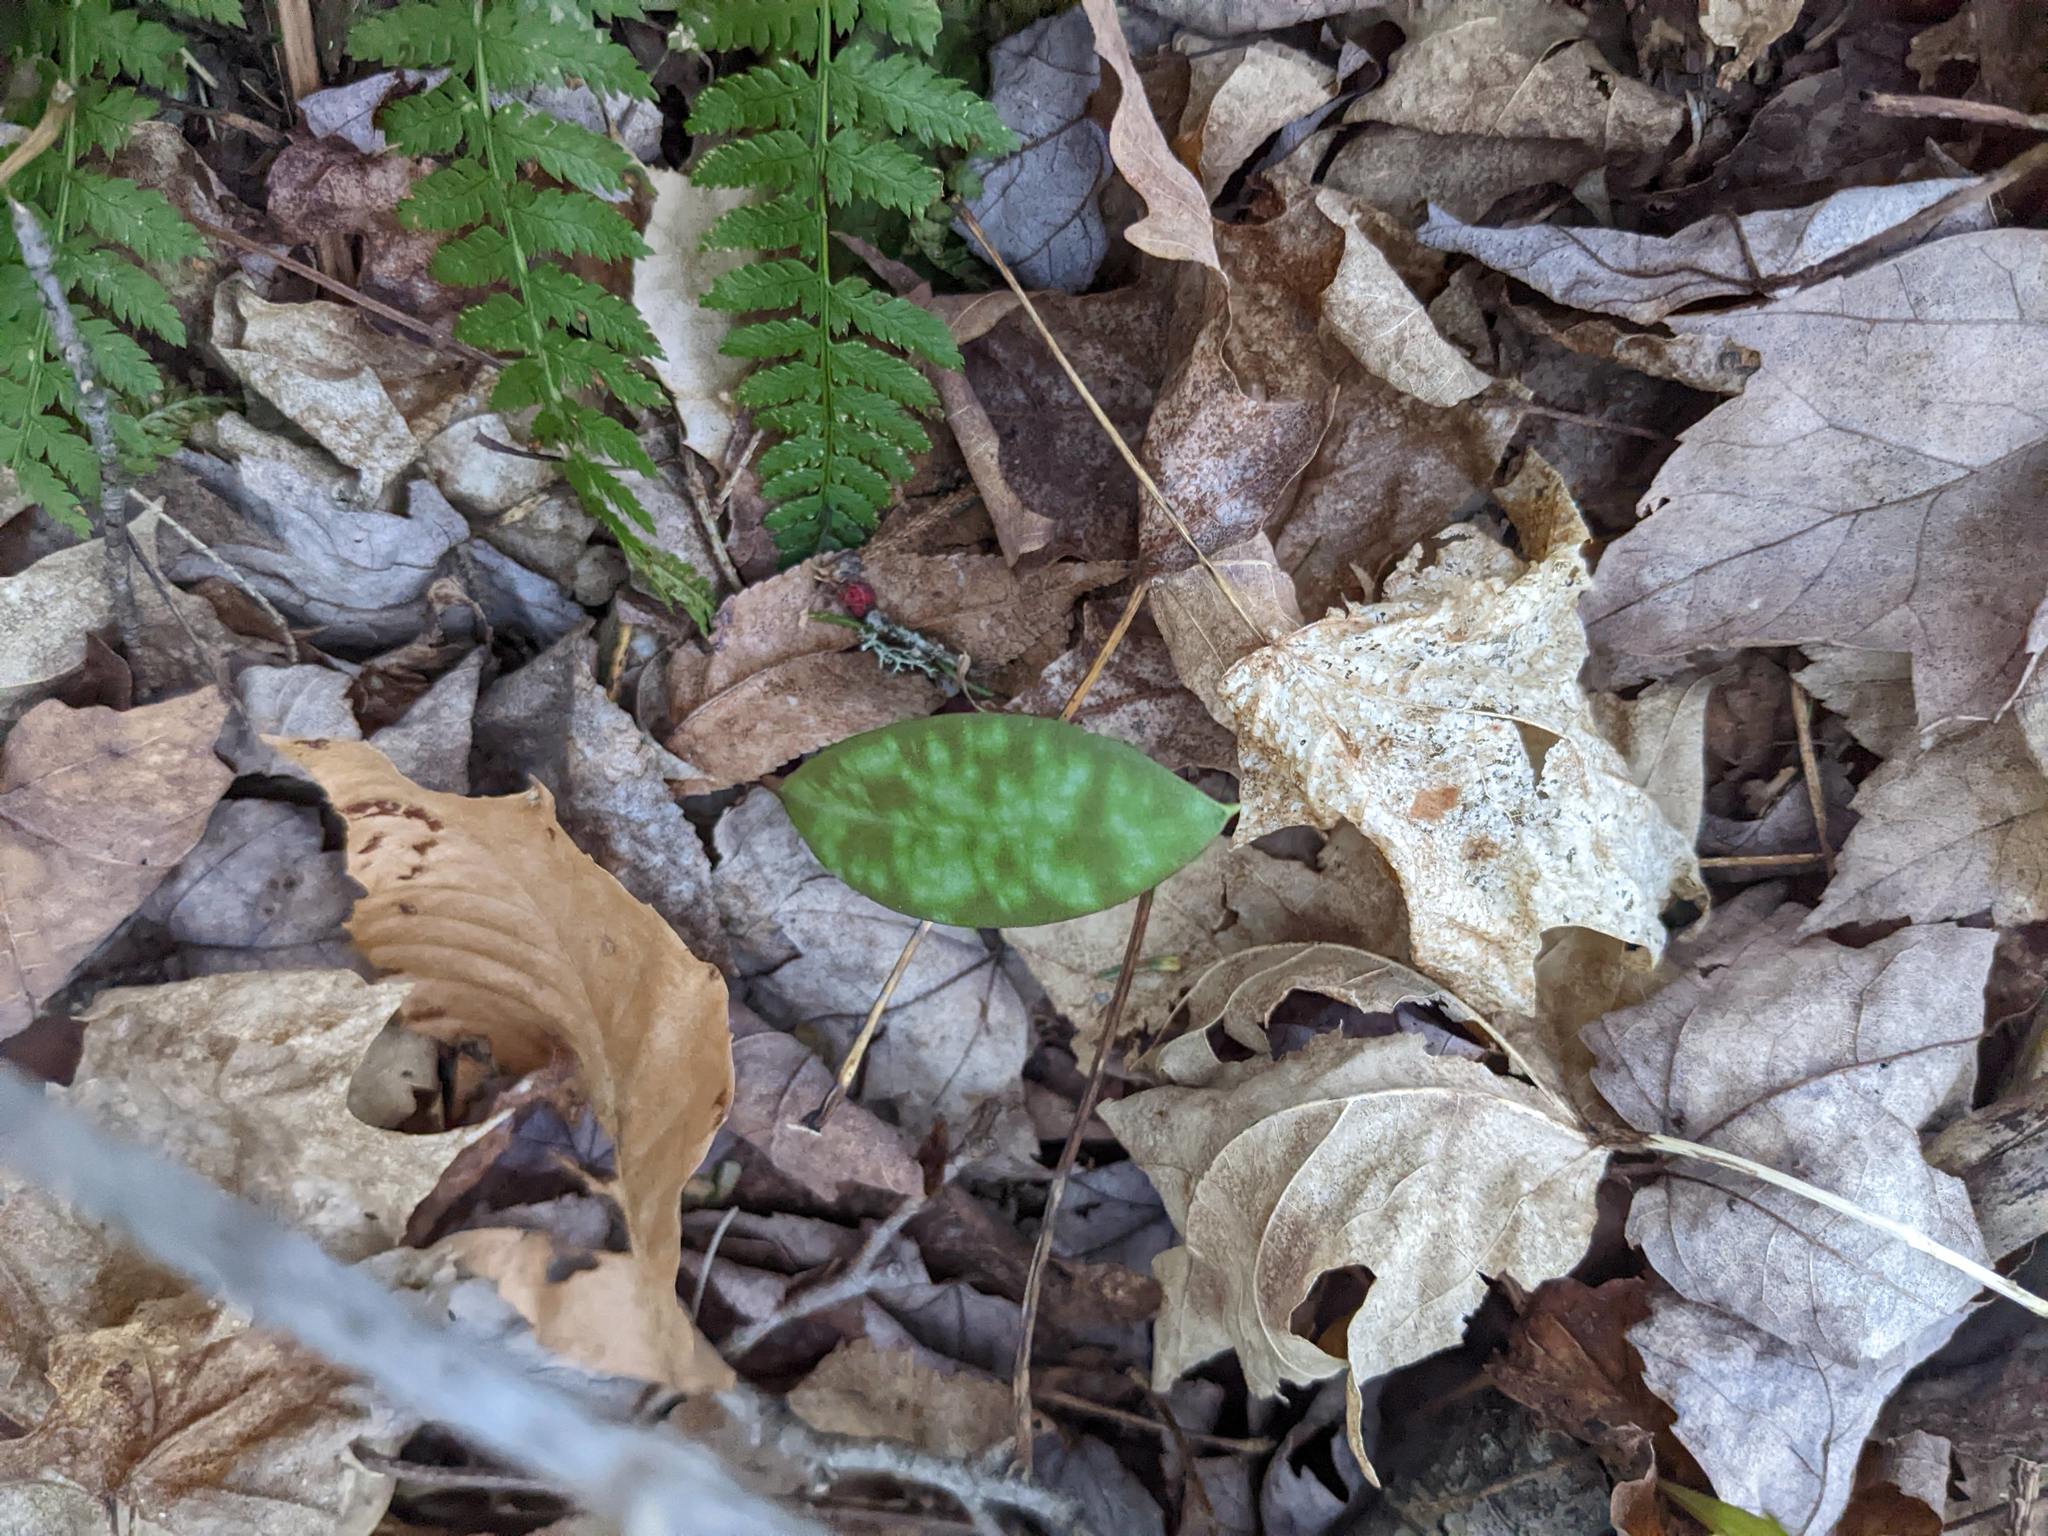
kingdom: Plantae
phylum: Tracheophyta
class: Liliopsida
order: Liliales
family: Liliaceae
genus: Erythronium
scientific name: Erythronium americanum
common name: Yellow adder's-tongue
